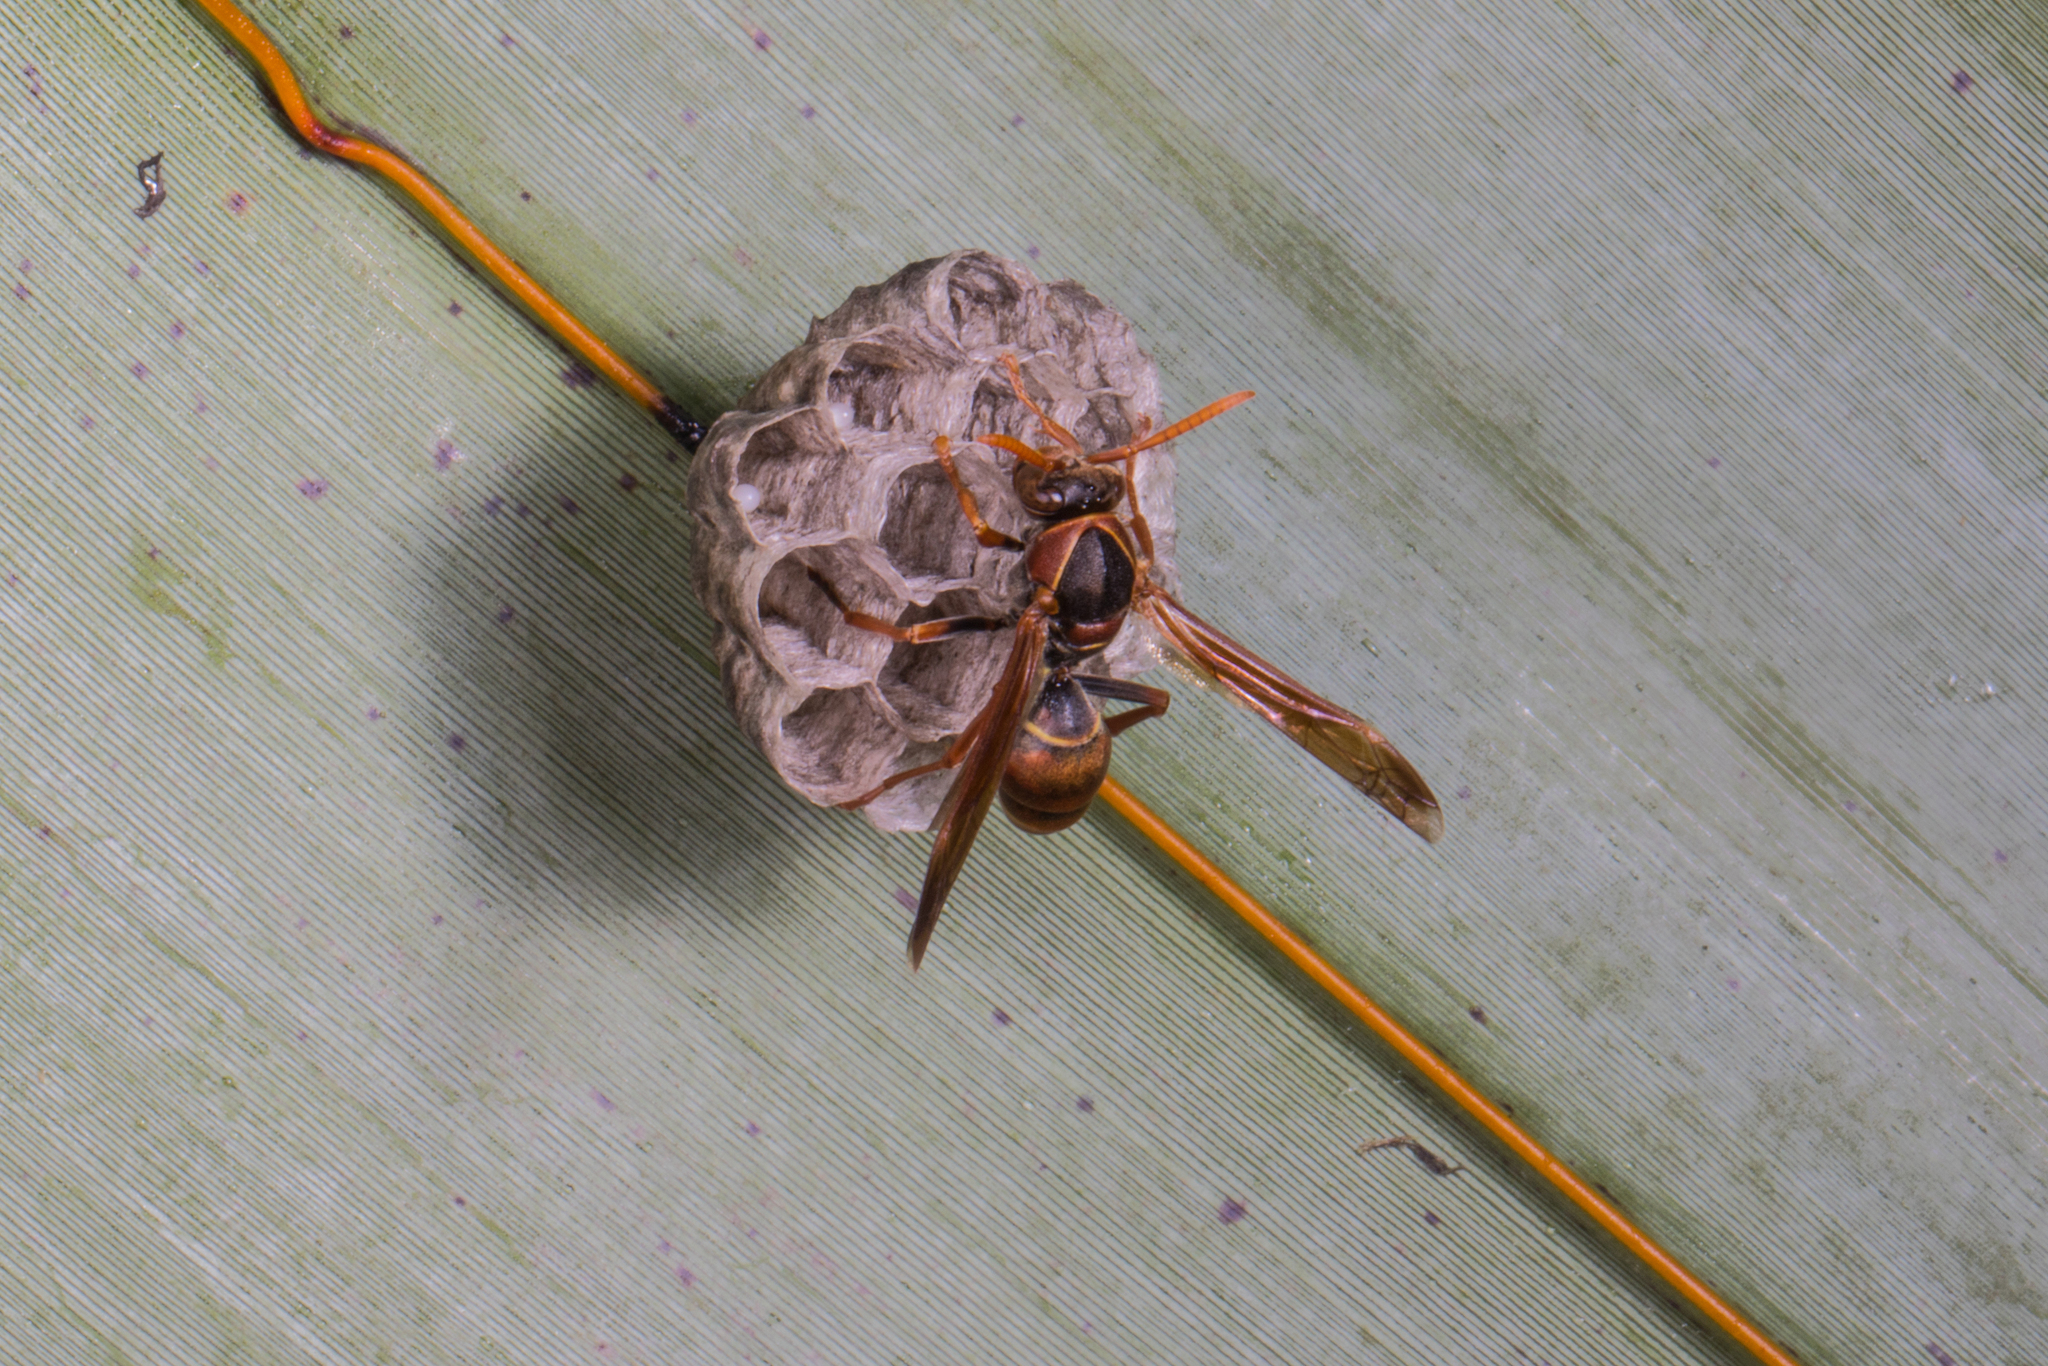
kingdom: Animalia
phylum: Arthropoda
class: Insecta
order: Hymenoptera
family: Eumenidae
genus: Polistes
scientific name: Polistes humilis
